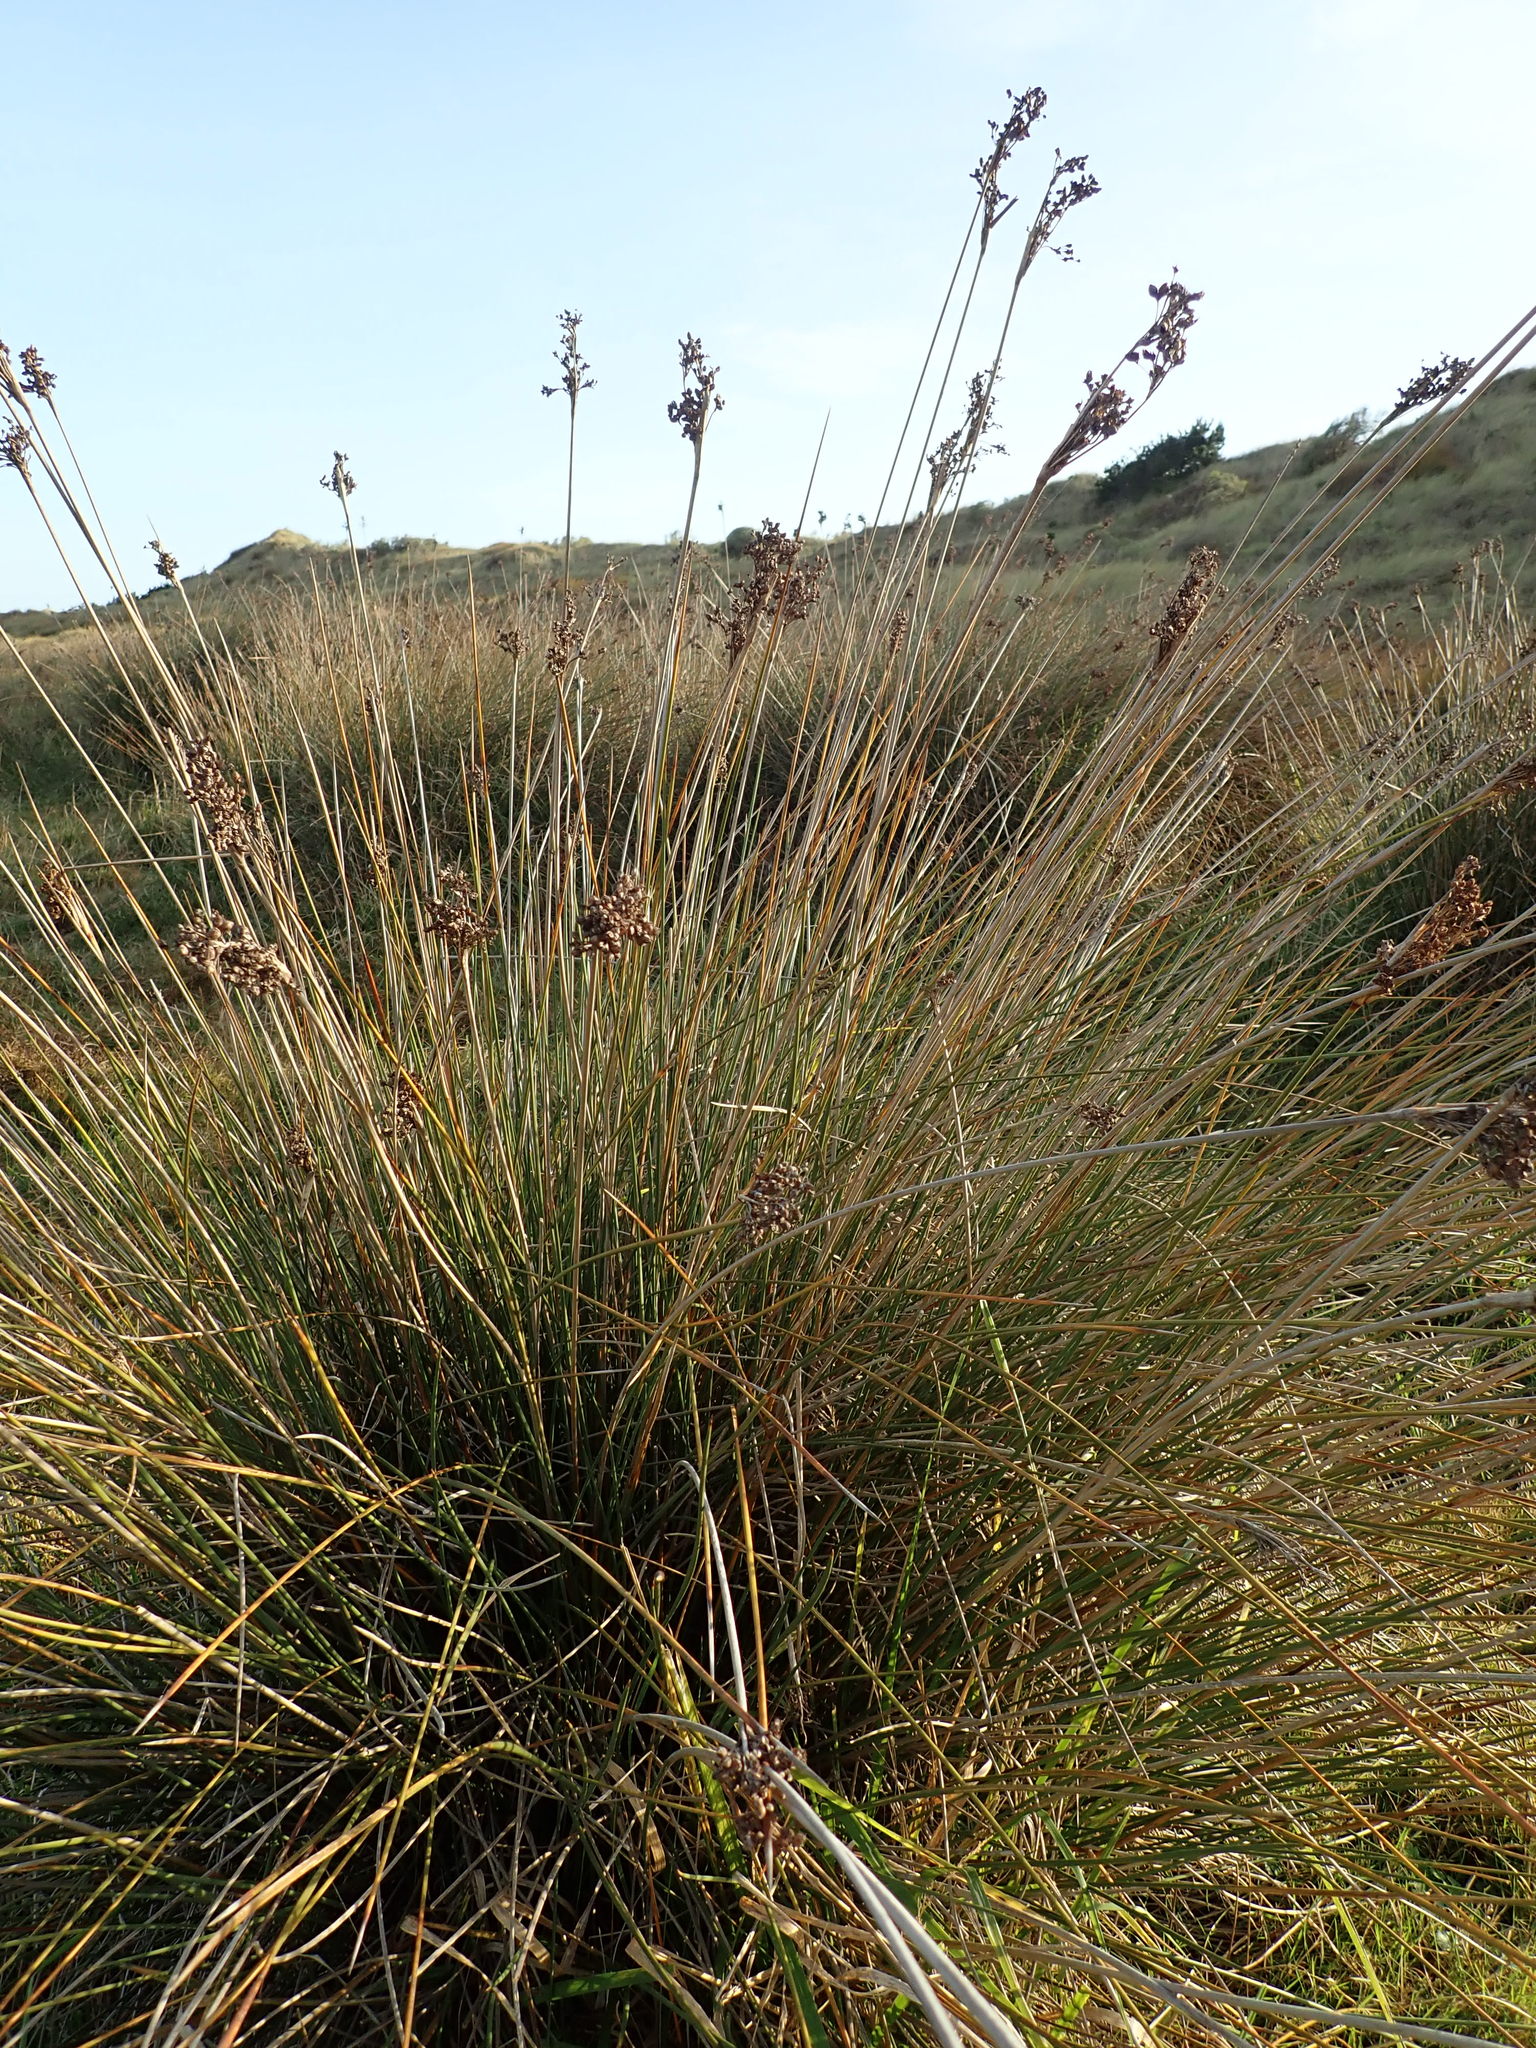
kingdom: Plantae
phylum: Tracheophyta
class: Liliopsida
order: Poales
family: Juncaceae
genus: Juncus
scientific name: Juncus acutus
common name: Sharp rush
